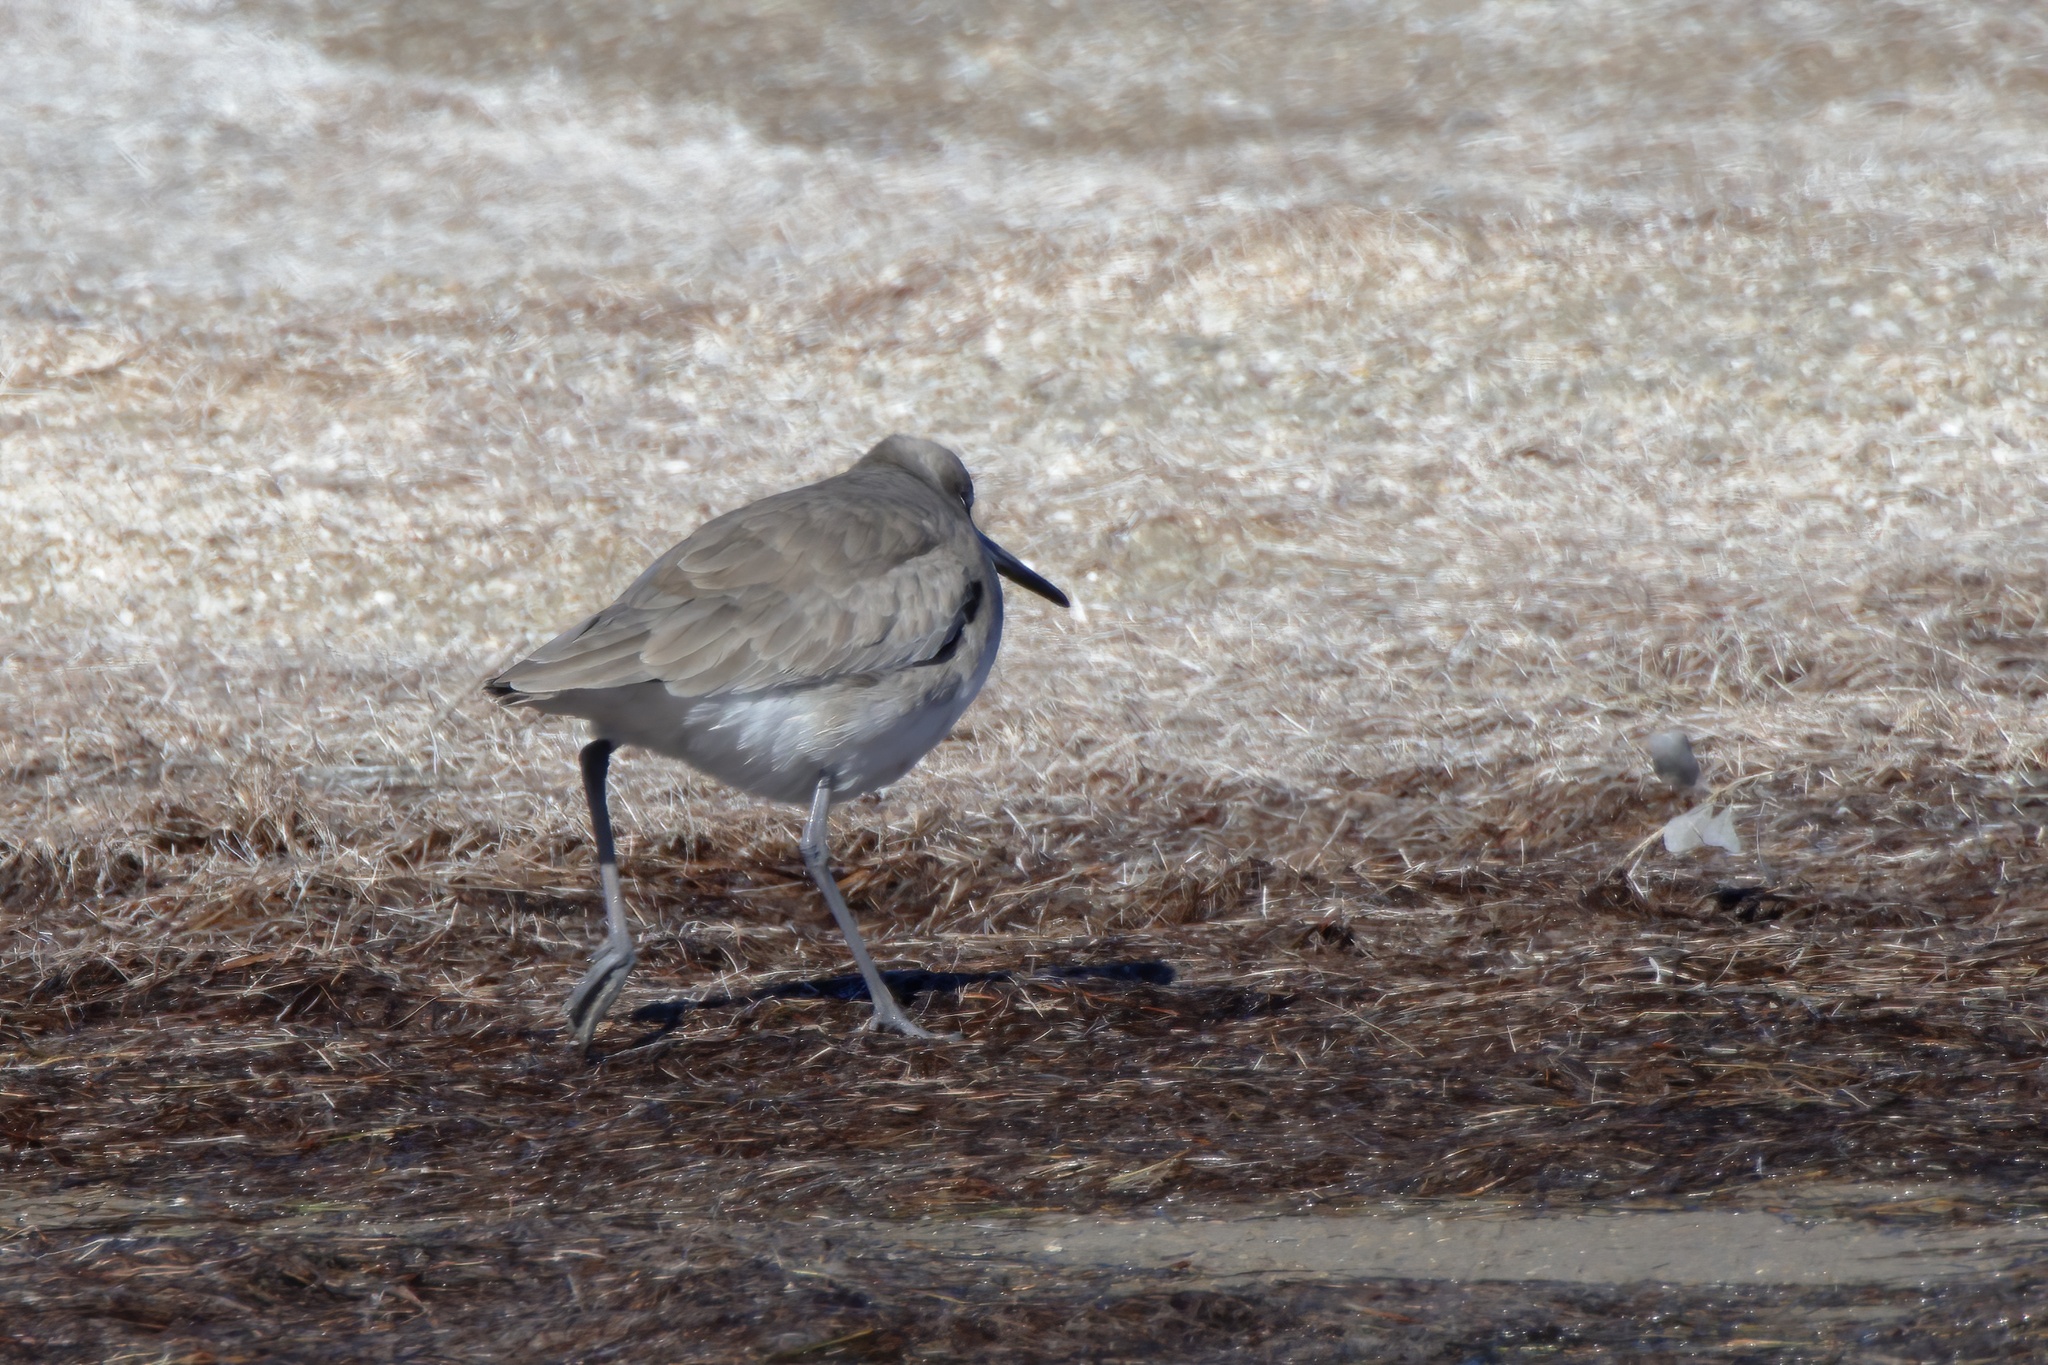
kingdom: Animalia
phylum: Chordata
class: Aves
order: Charadriiformes
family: Scolopacidae
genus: Tringa
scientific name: Tringa semipalmata
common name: Willet
